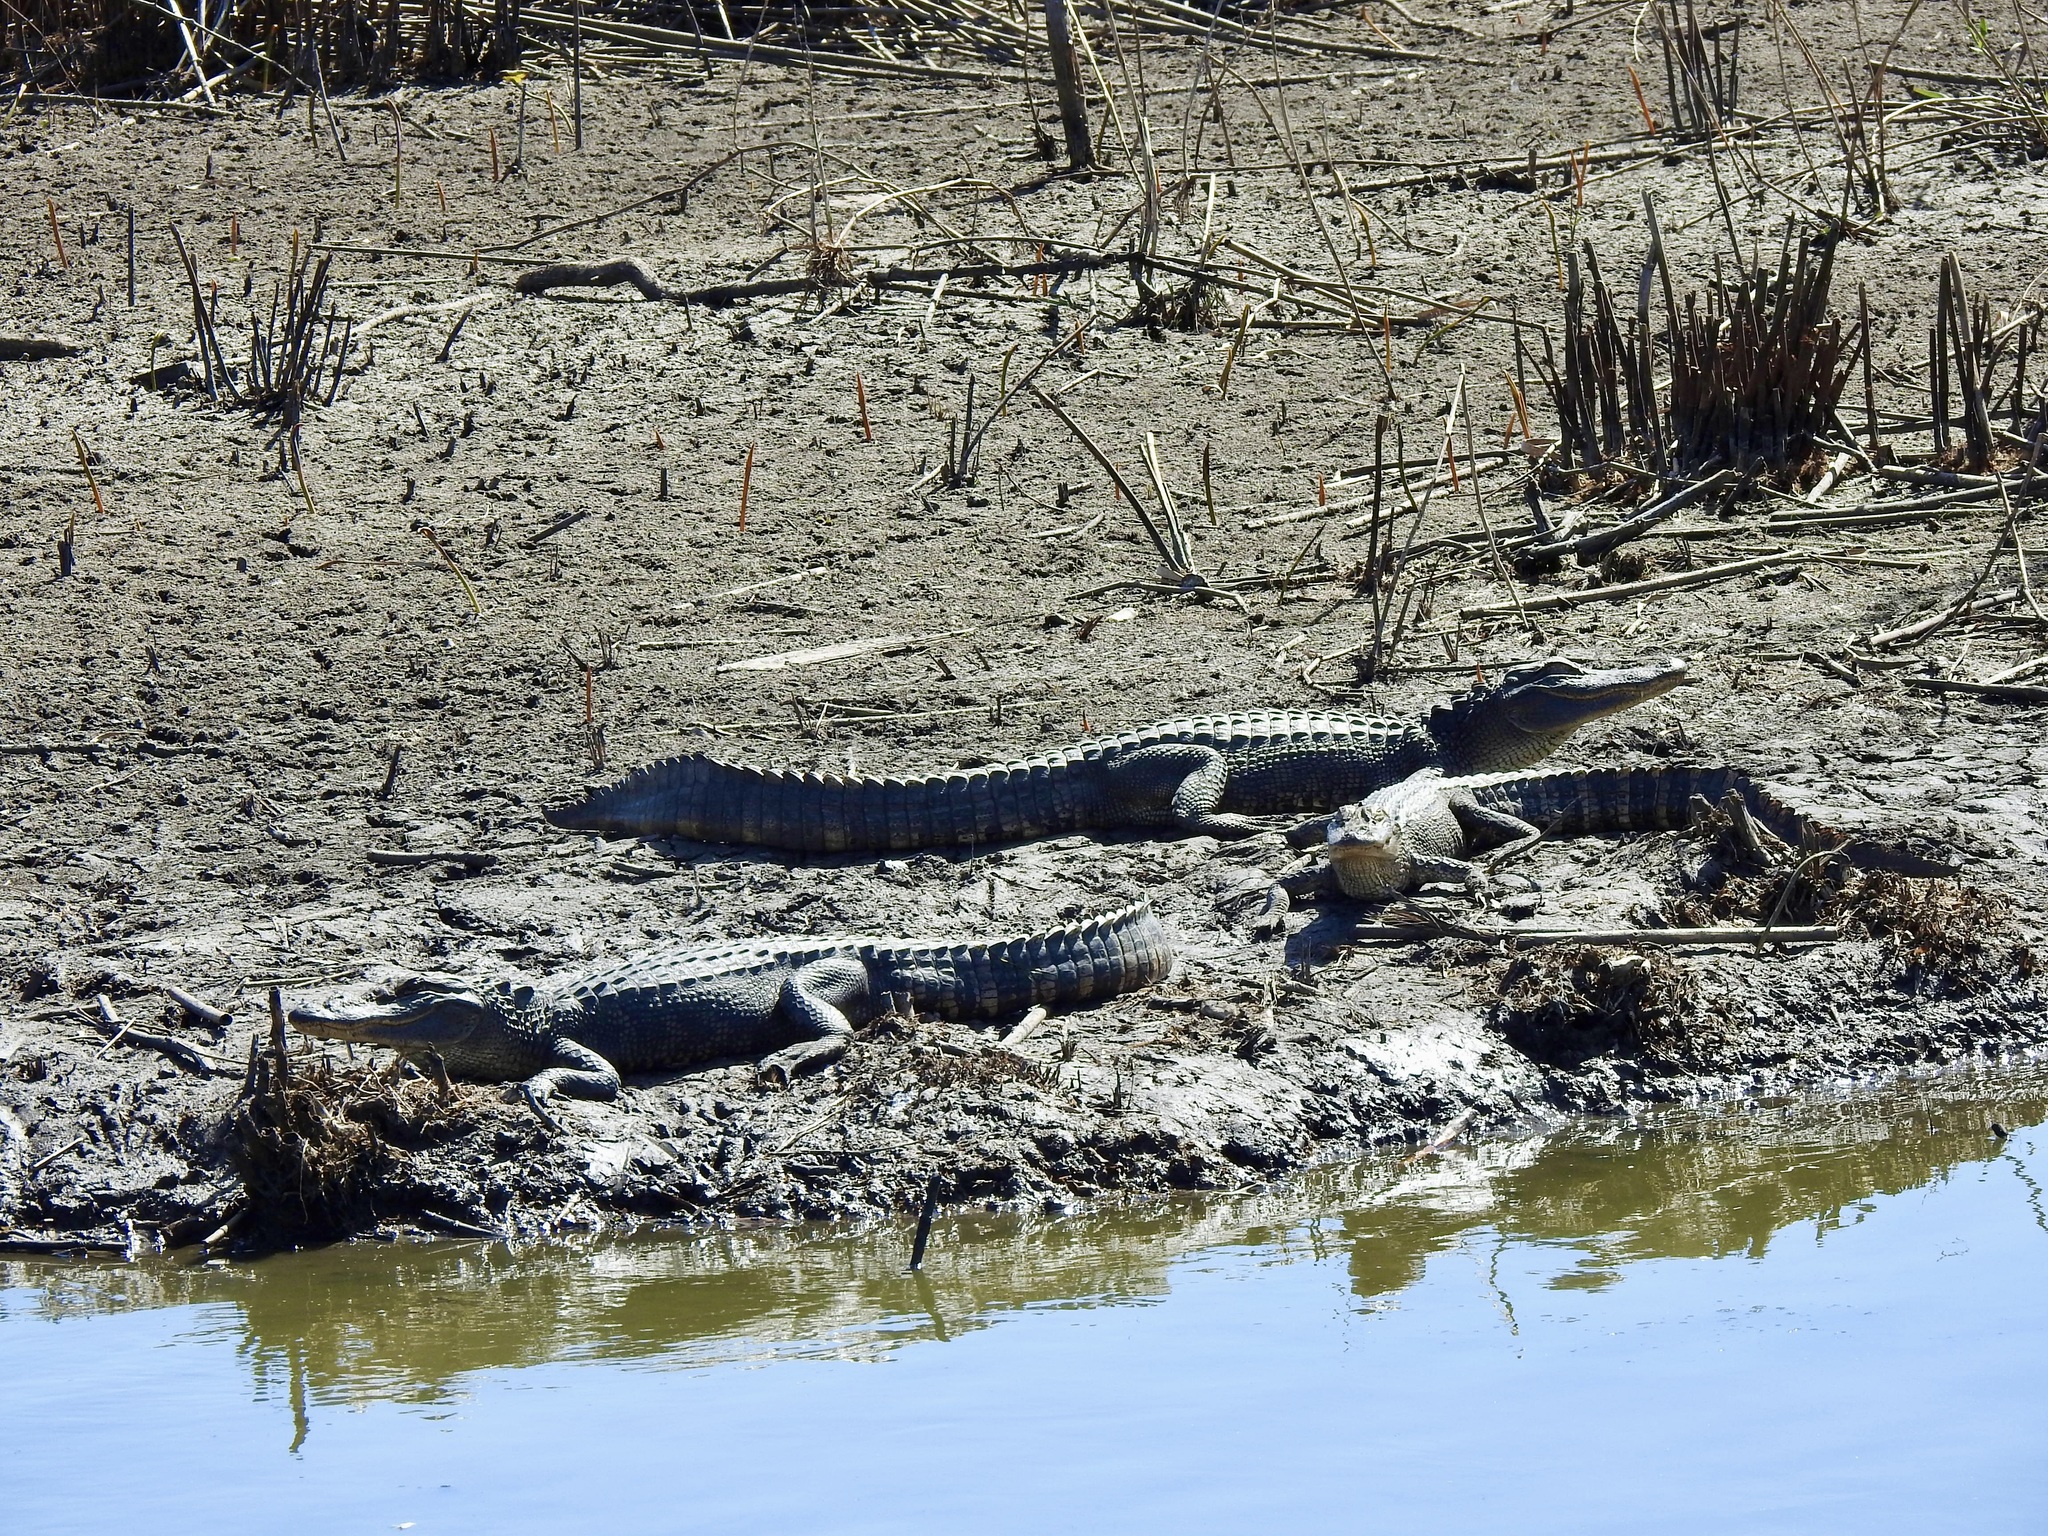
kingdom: Animalia
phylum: Chordata
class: Crocodylia
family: Alligatoridae
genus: Alligator
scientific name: Alligator mississippiensis
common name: American alligator
